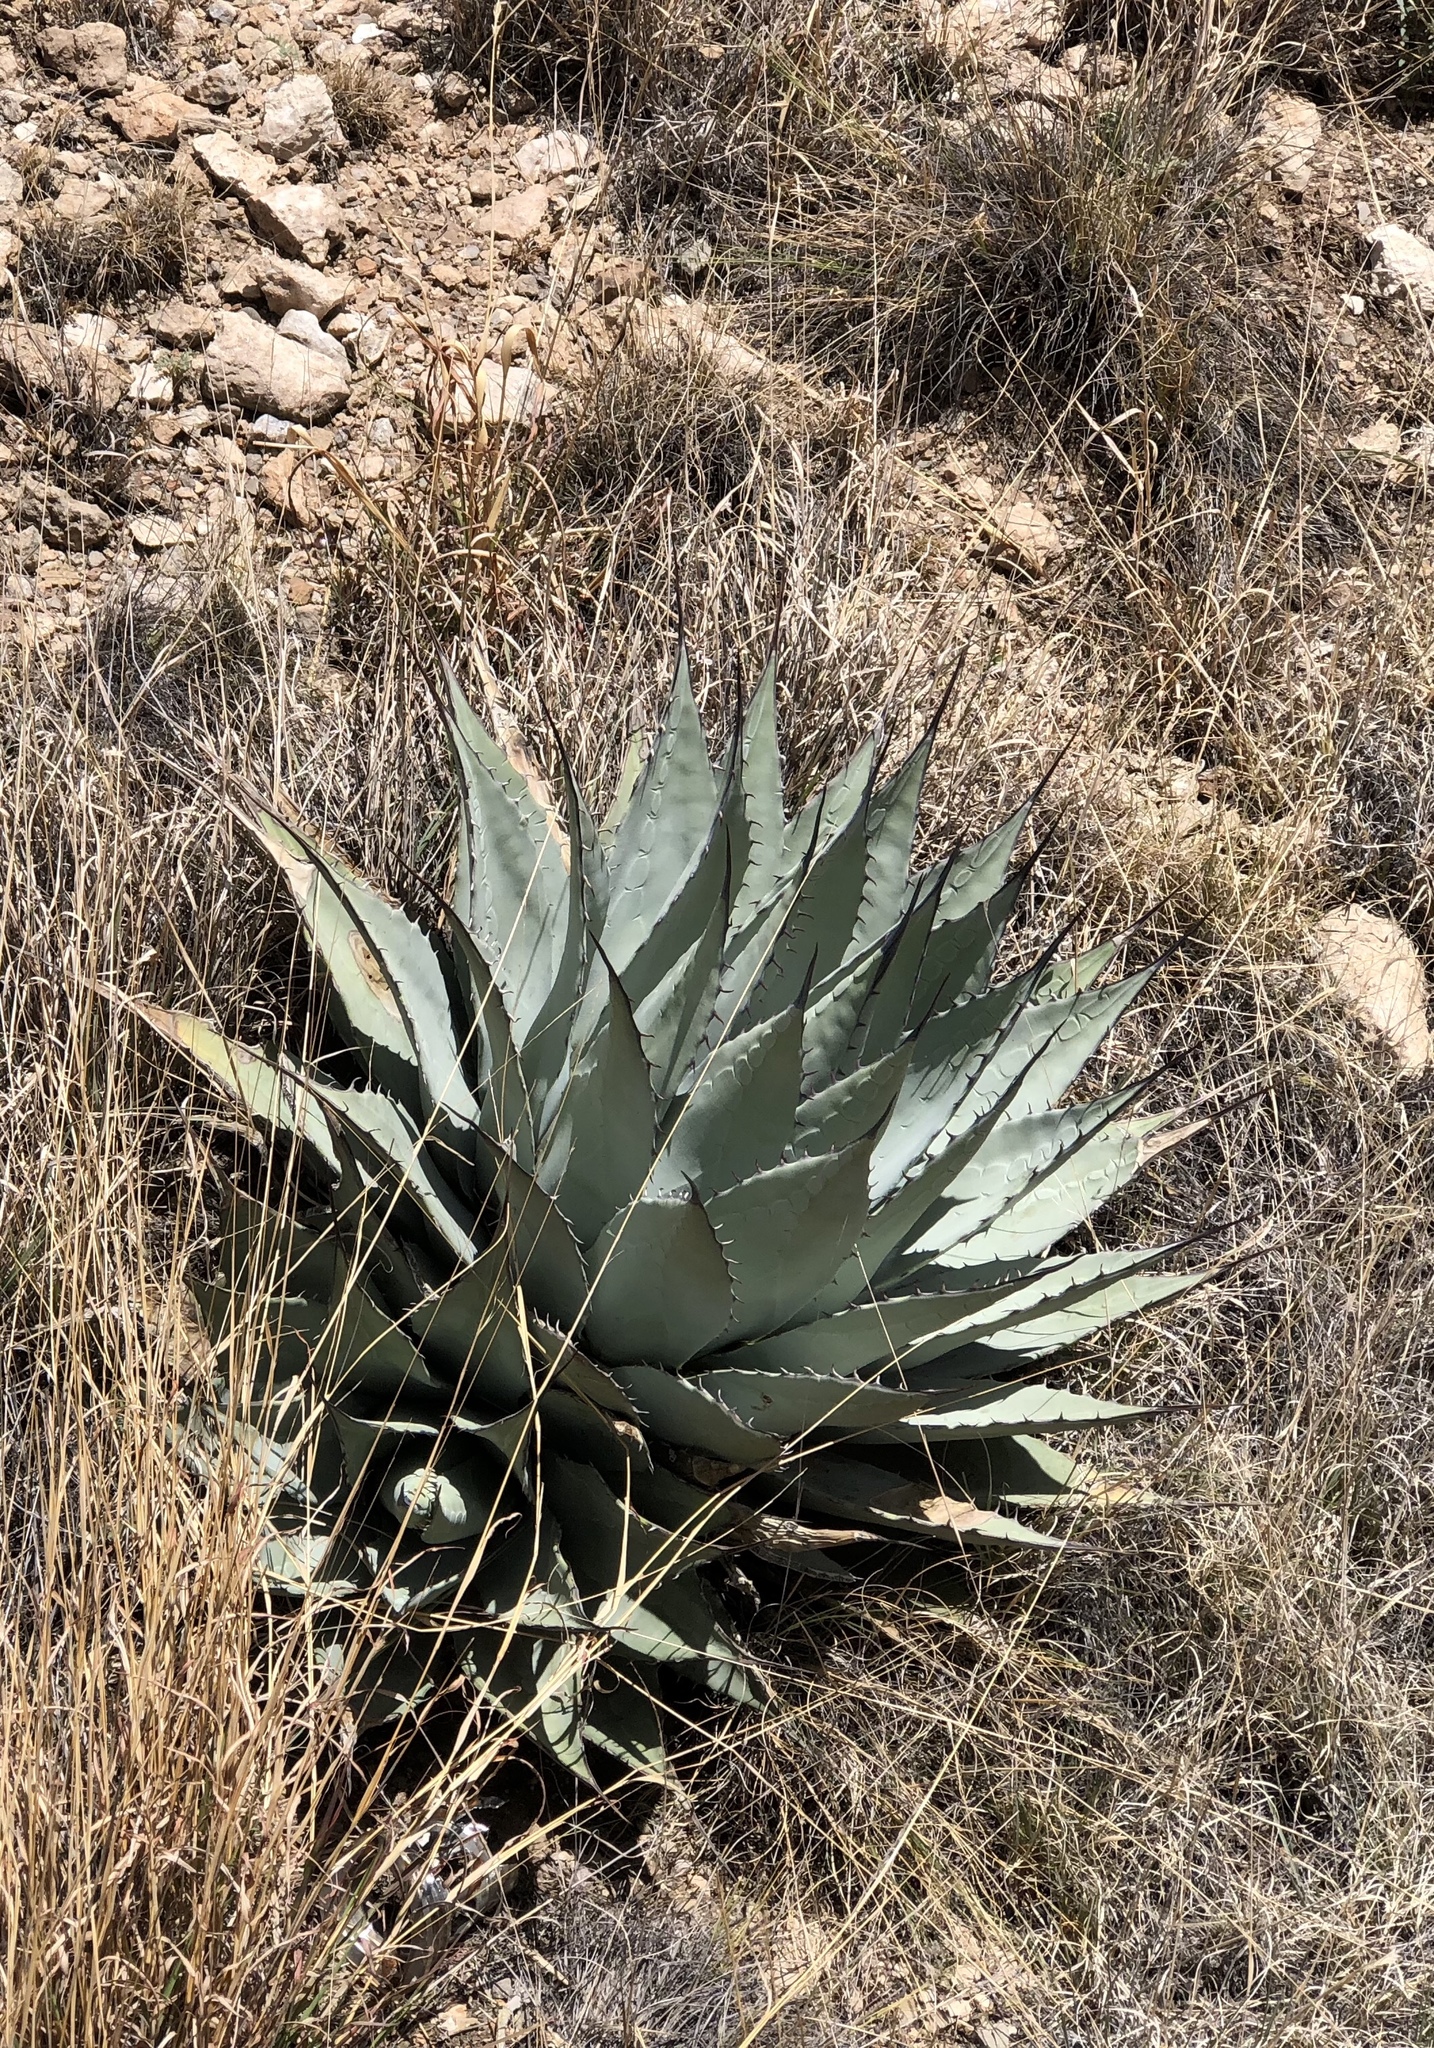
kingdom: Plantae
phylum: Tracheophyta
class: Liliopsida
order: Asparagales
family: Asparagaceae
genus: Agave
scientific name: Agave parryi
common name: Parry's agave
